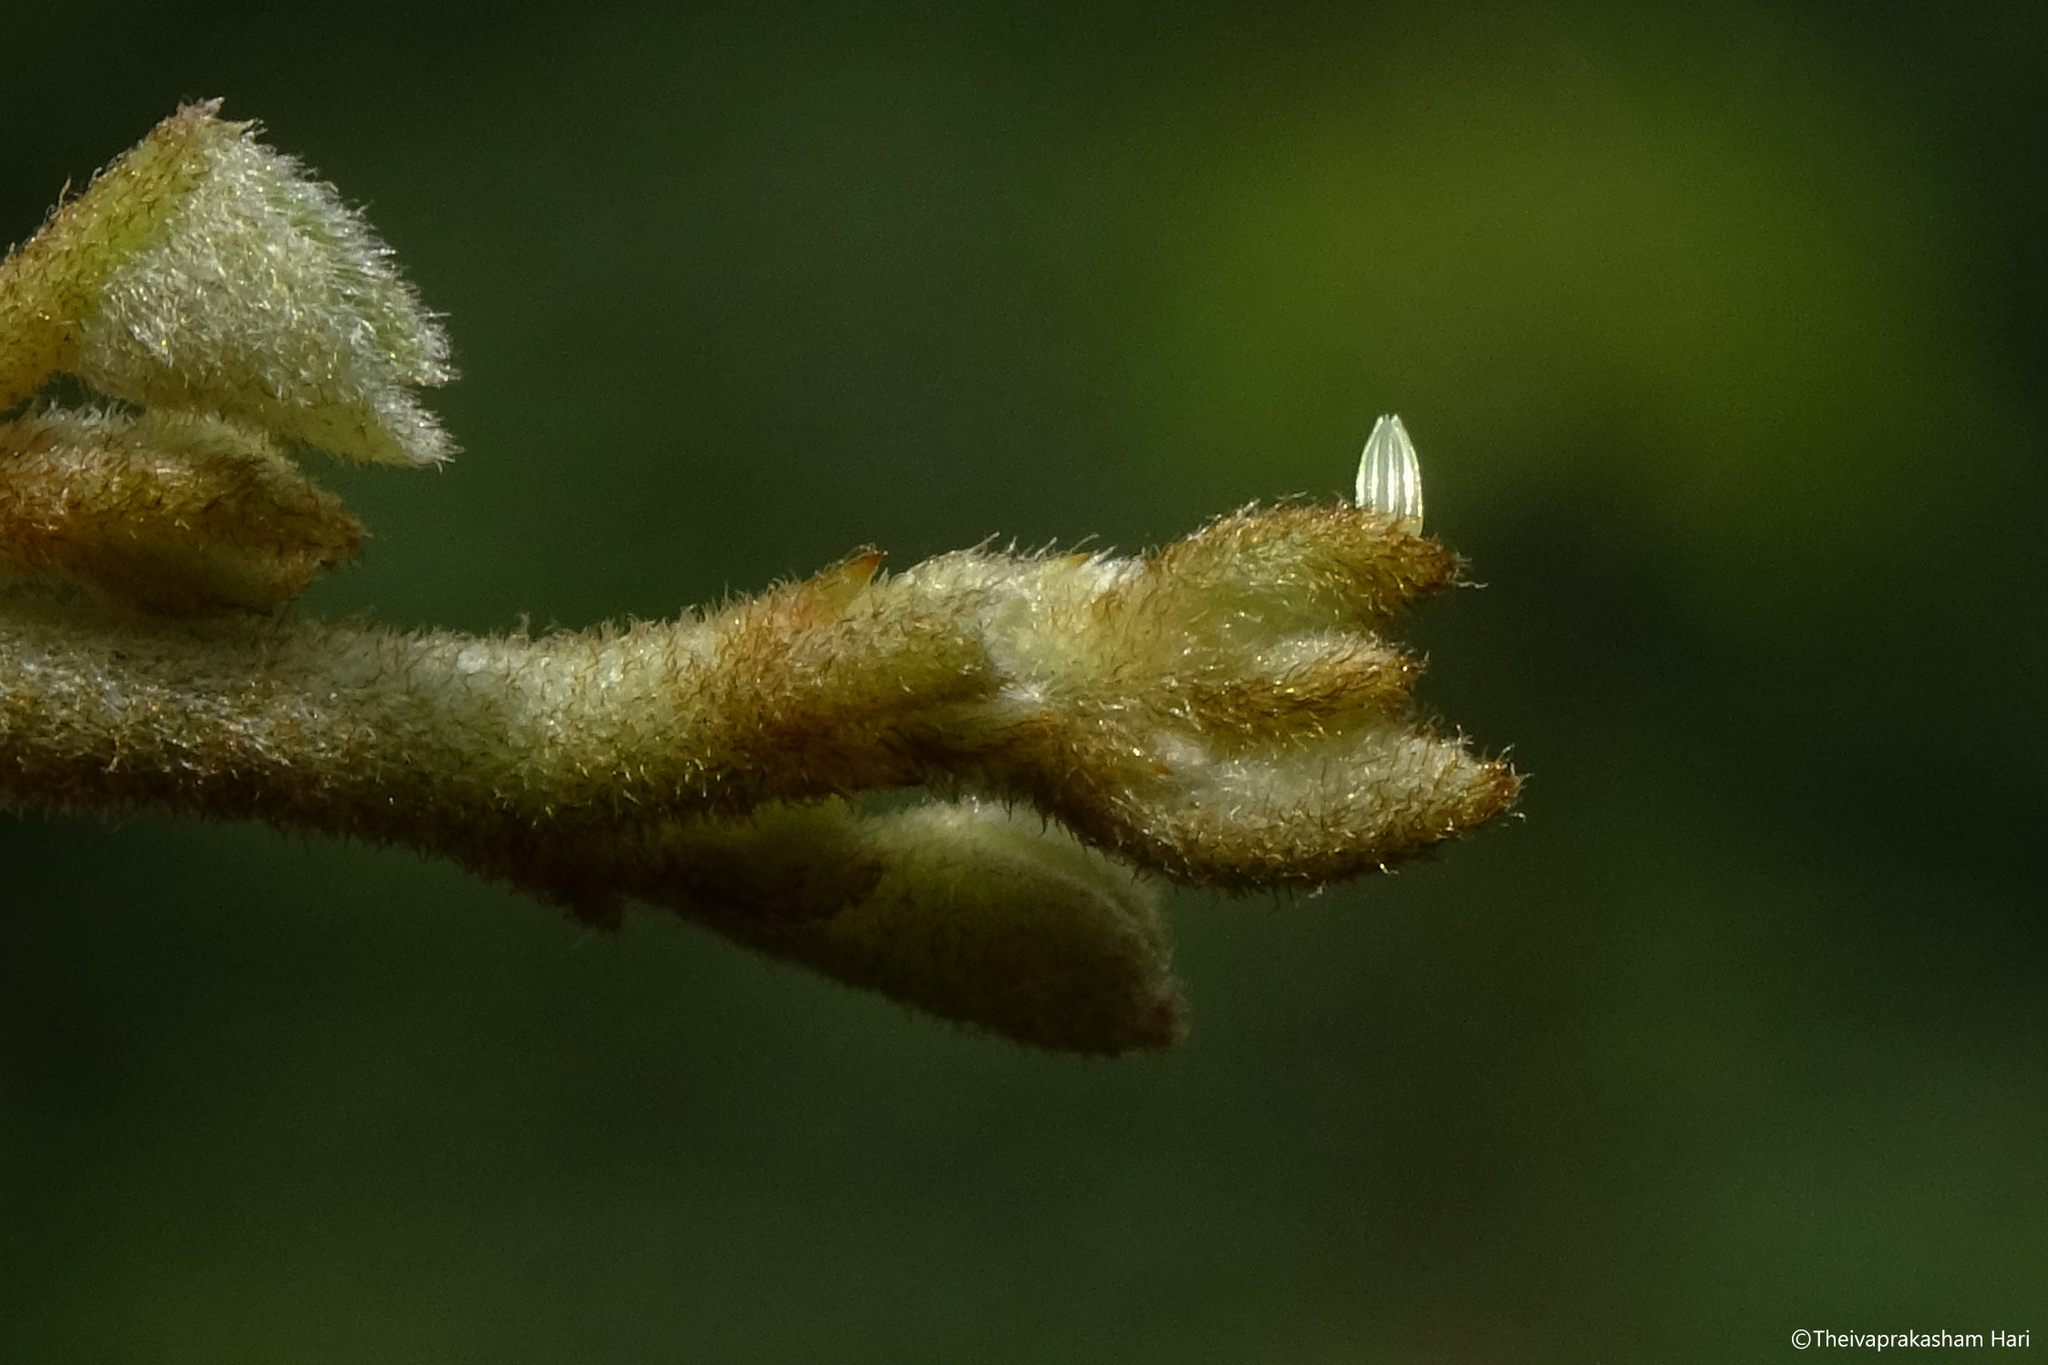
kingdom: Animalia
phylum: Arthropoda
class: Insecta
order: Lepidoptera
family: Pieridae
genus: Cepora
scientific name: Cepora nerissa
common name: Common gull
